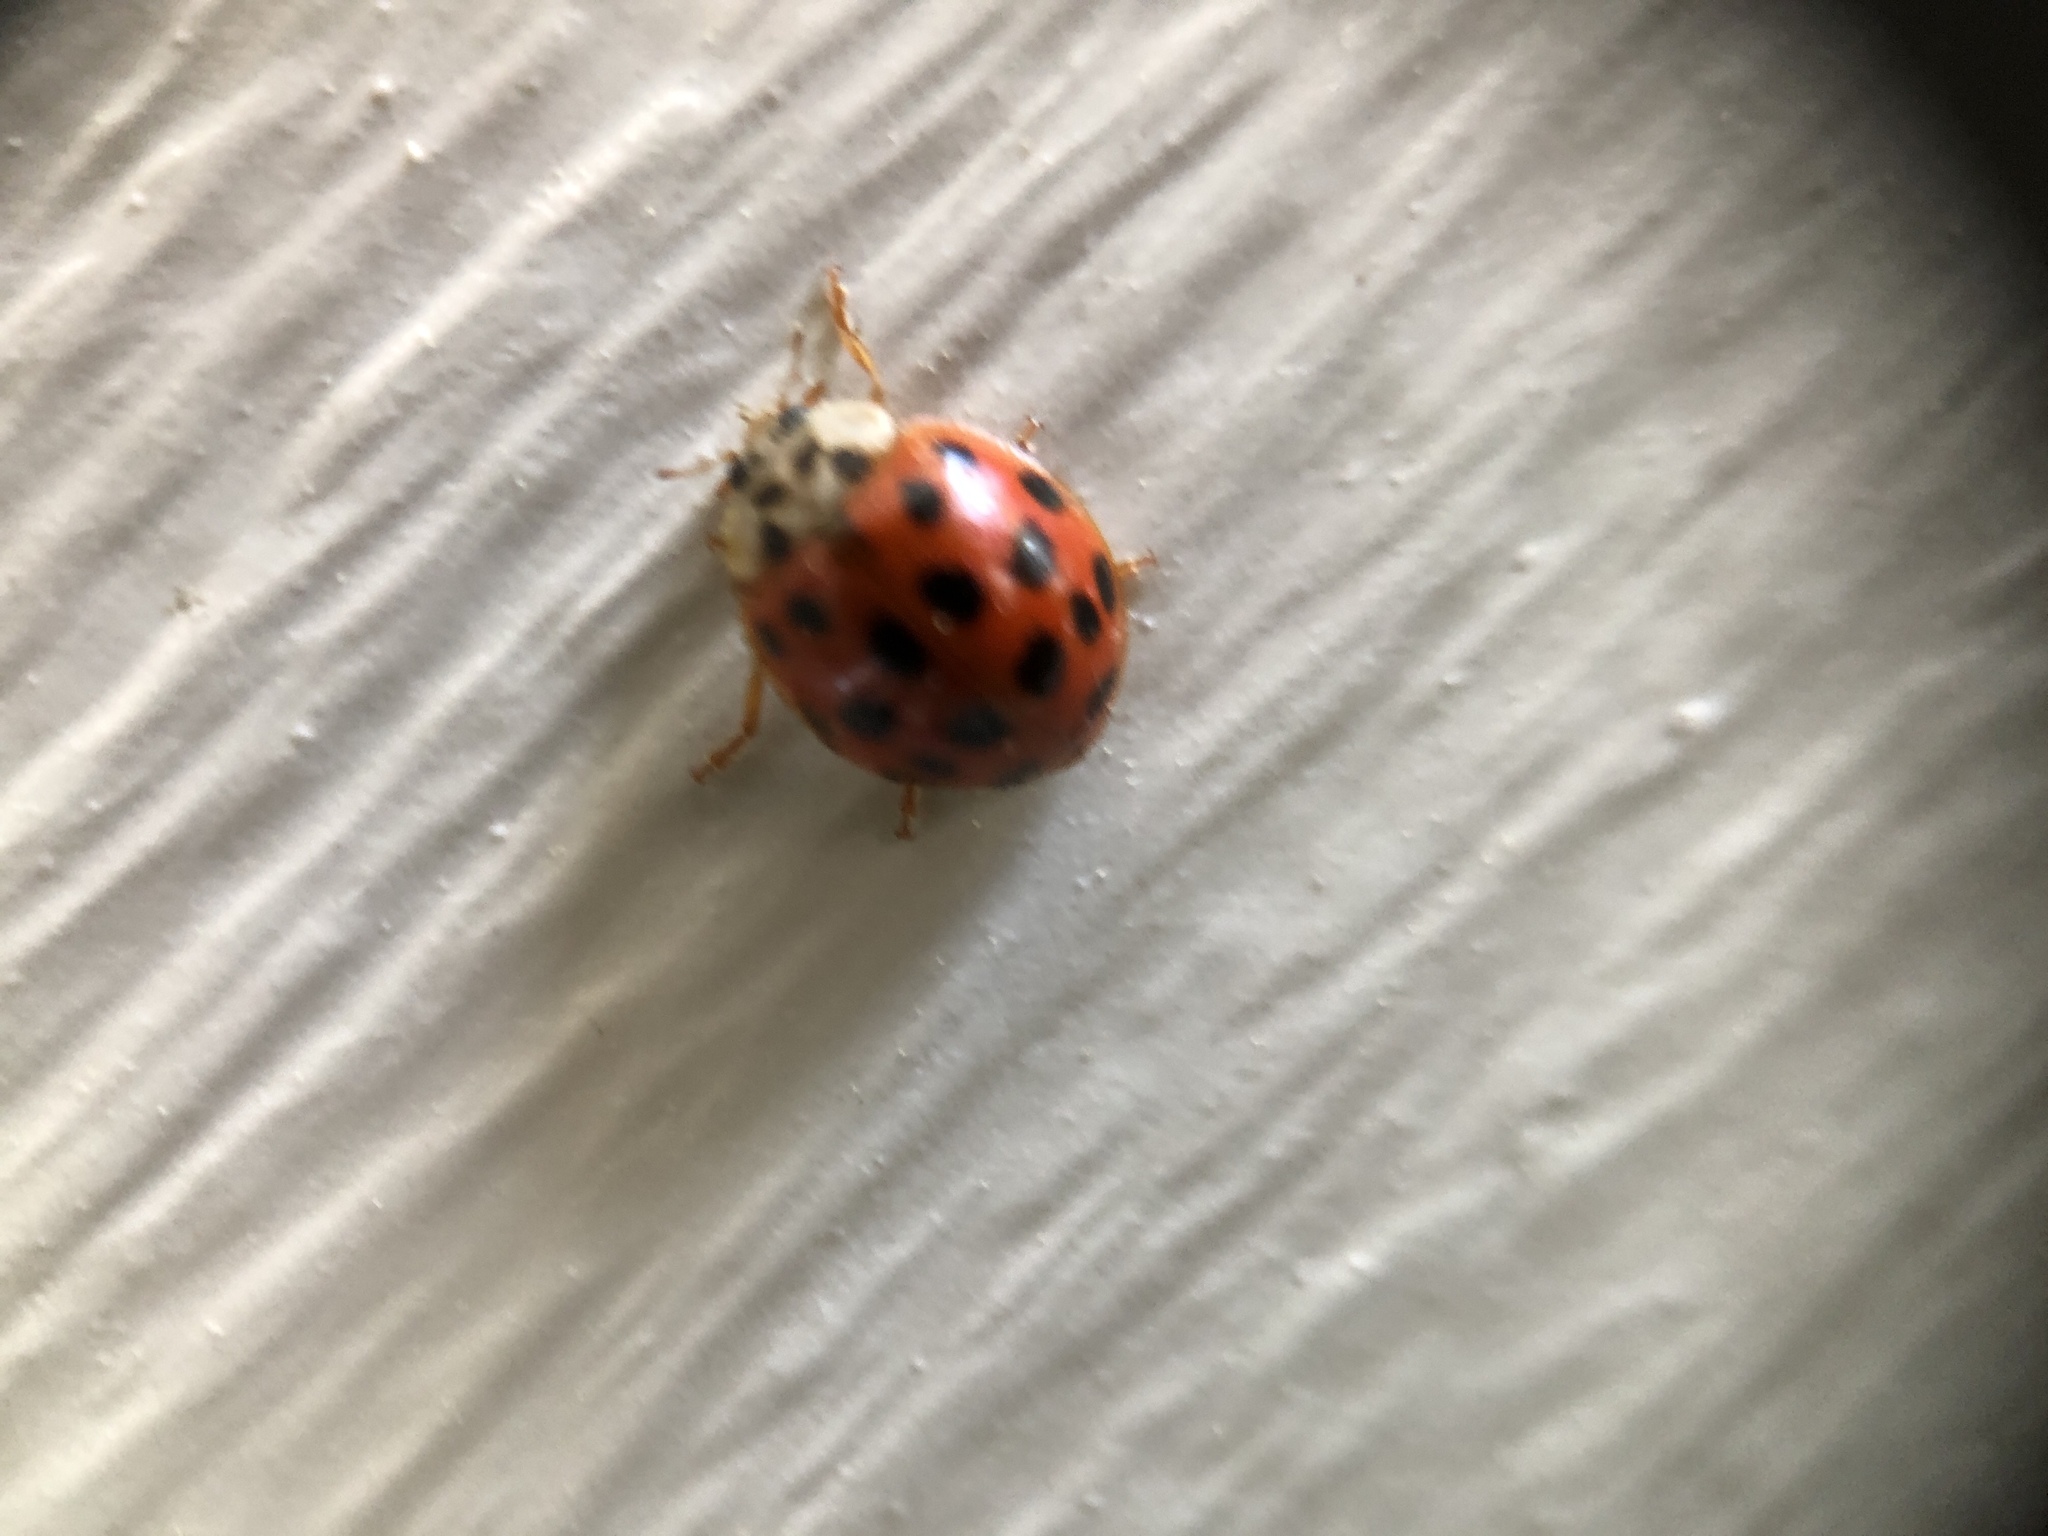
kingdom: Animalia
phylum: Arthropoda
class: Insecta
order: Coleoptera
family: Coccinellidae
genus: Harmonia
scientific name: Harmonia axyridis
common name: Harlequin ladybird
